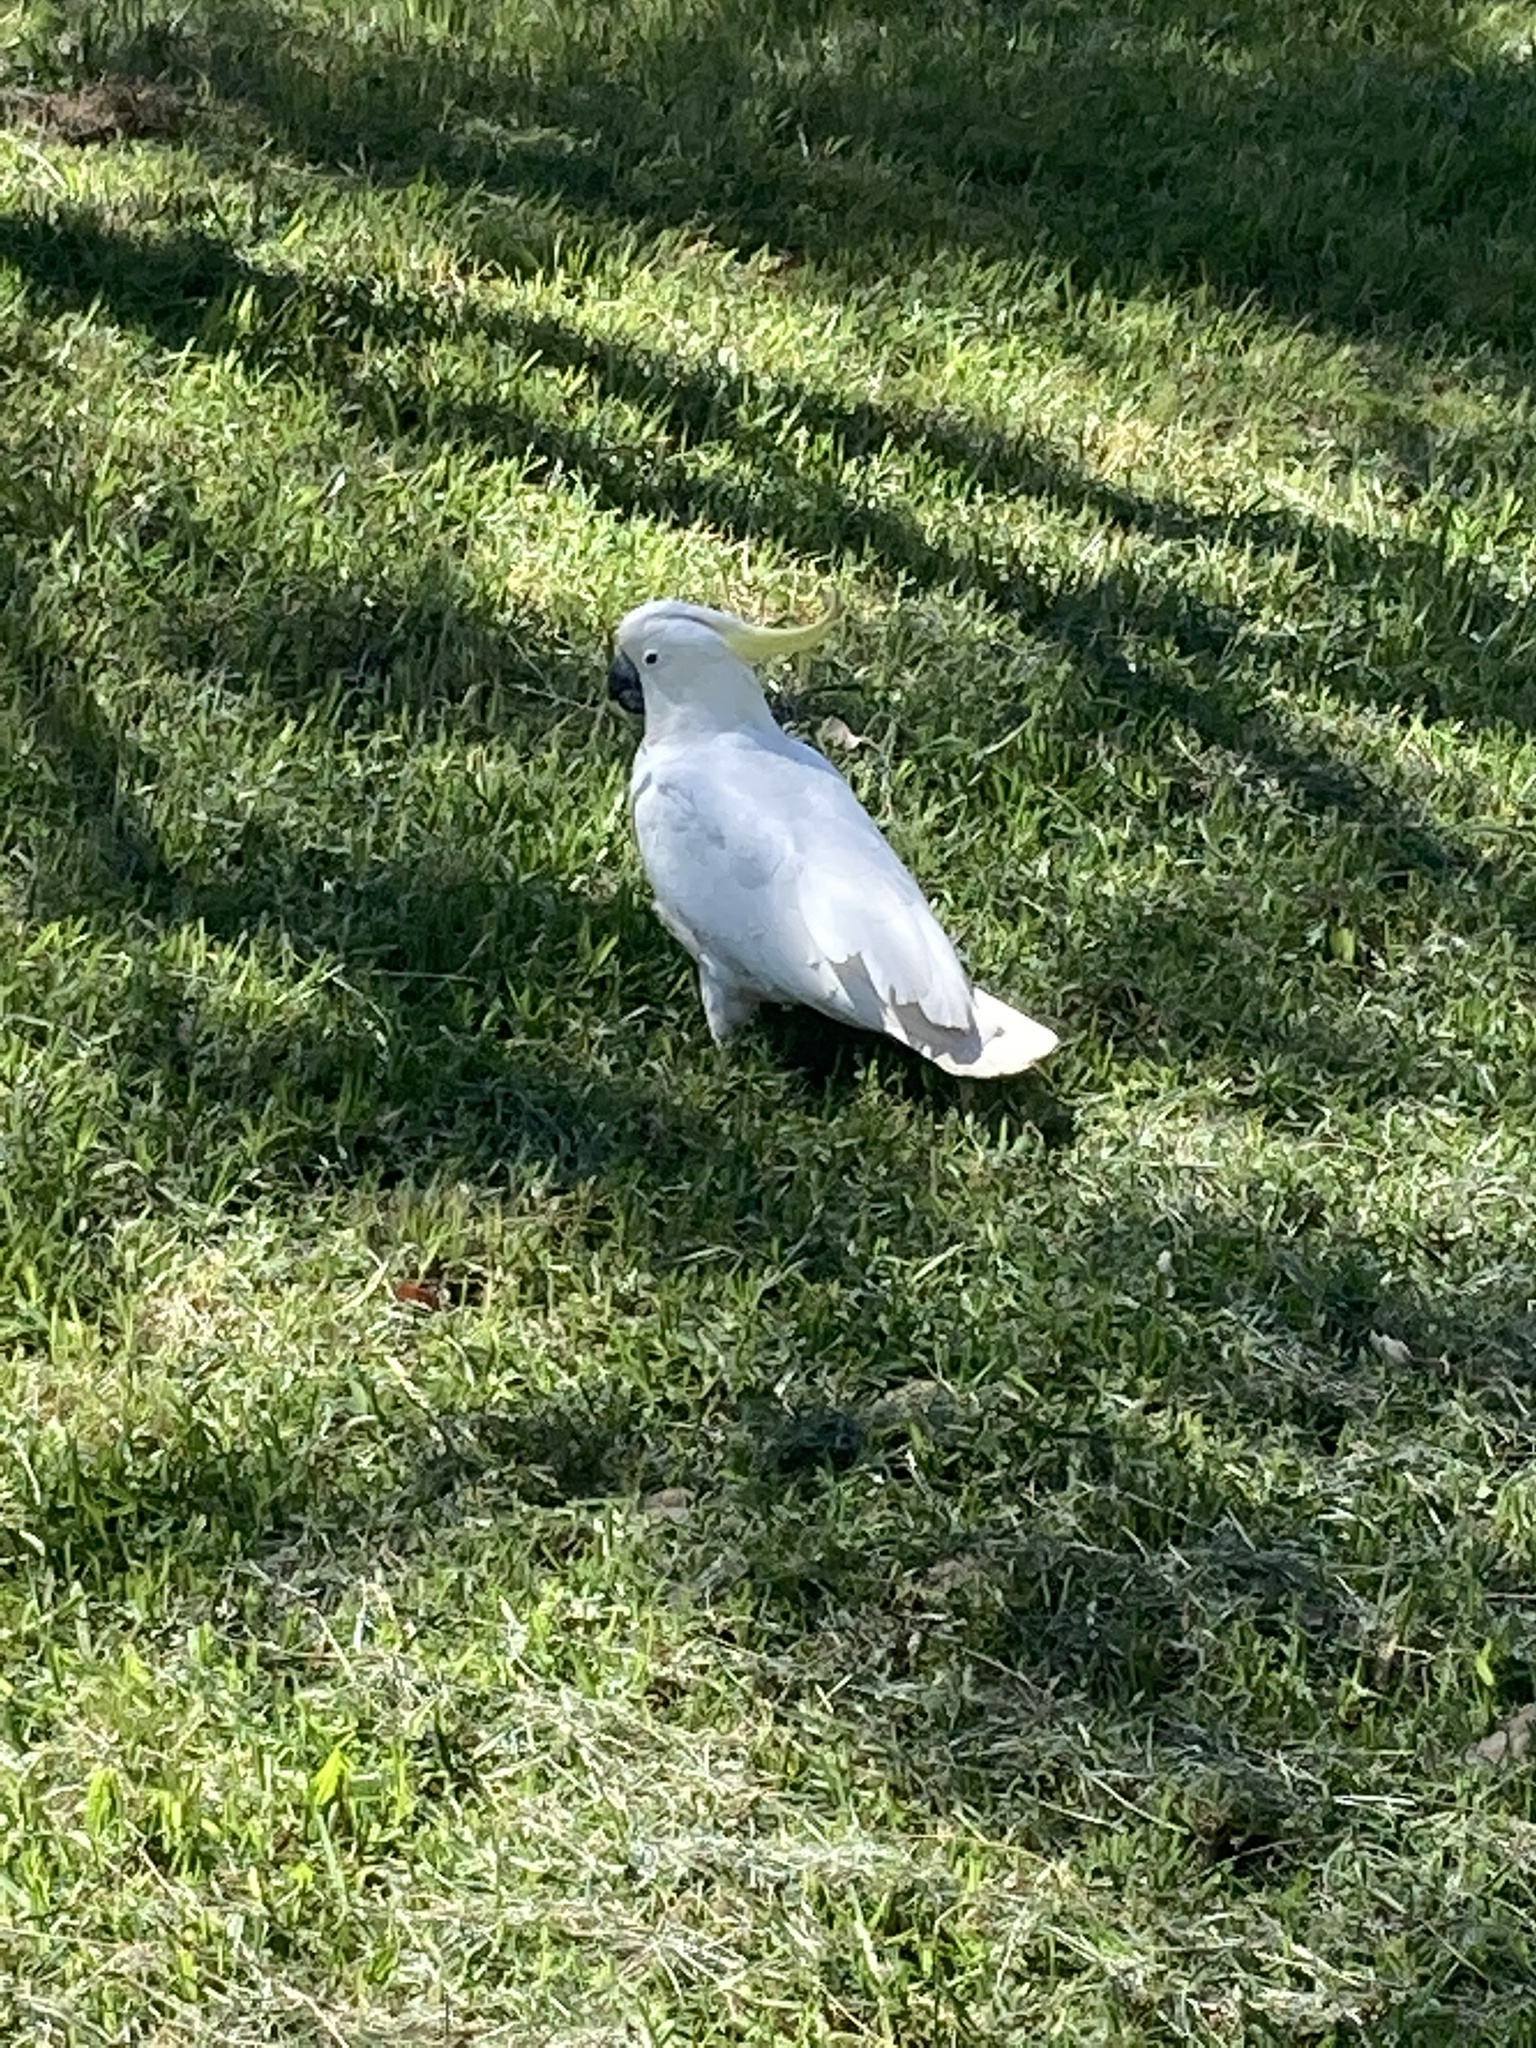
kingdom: Animalia
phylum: Chordata
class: Aves
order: Psittaciformes
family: Psittacidae
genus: Cacatua
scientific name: Cacatua galerita
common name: Sulphur-crested cockatoo
